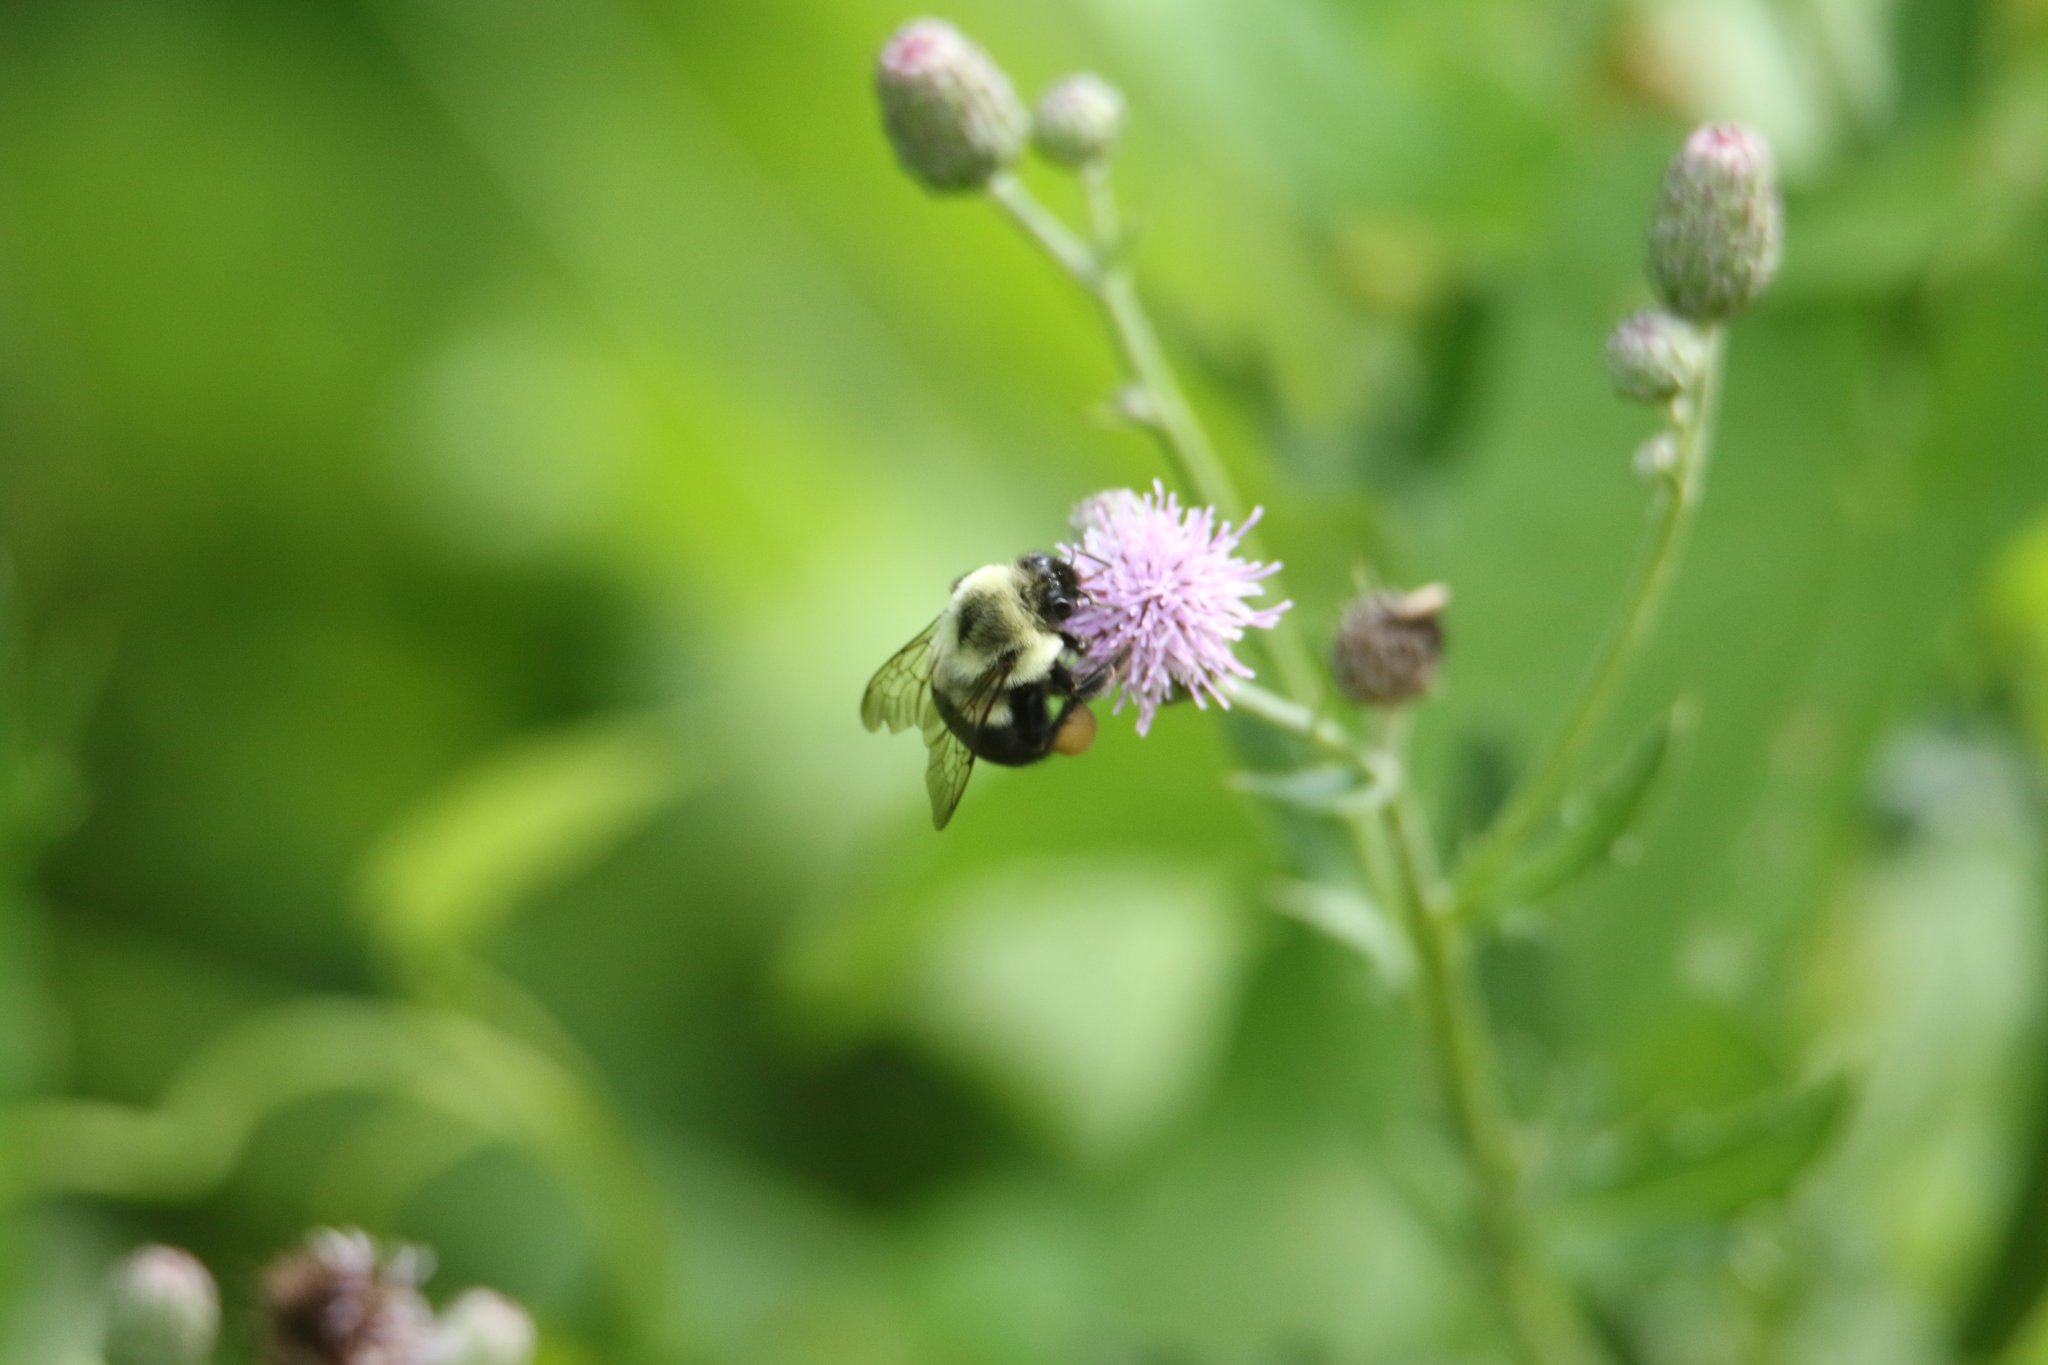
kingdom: Animalia
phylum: Arthropoda
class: Insecta
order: Hymenoptera
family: Apidae
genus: Bombus
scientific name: Bombus impatiens
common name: Common eastern bumble bee
